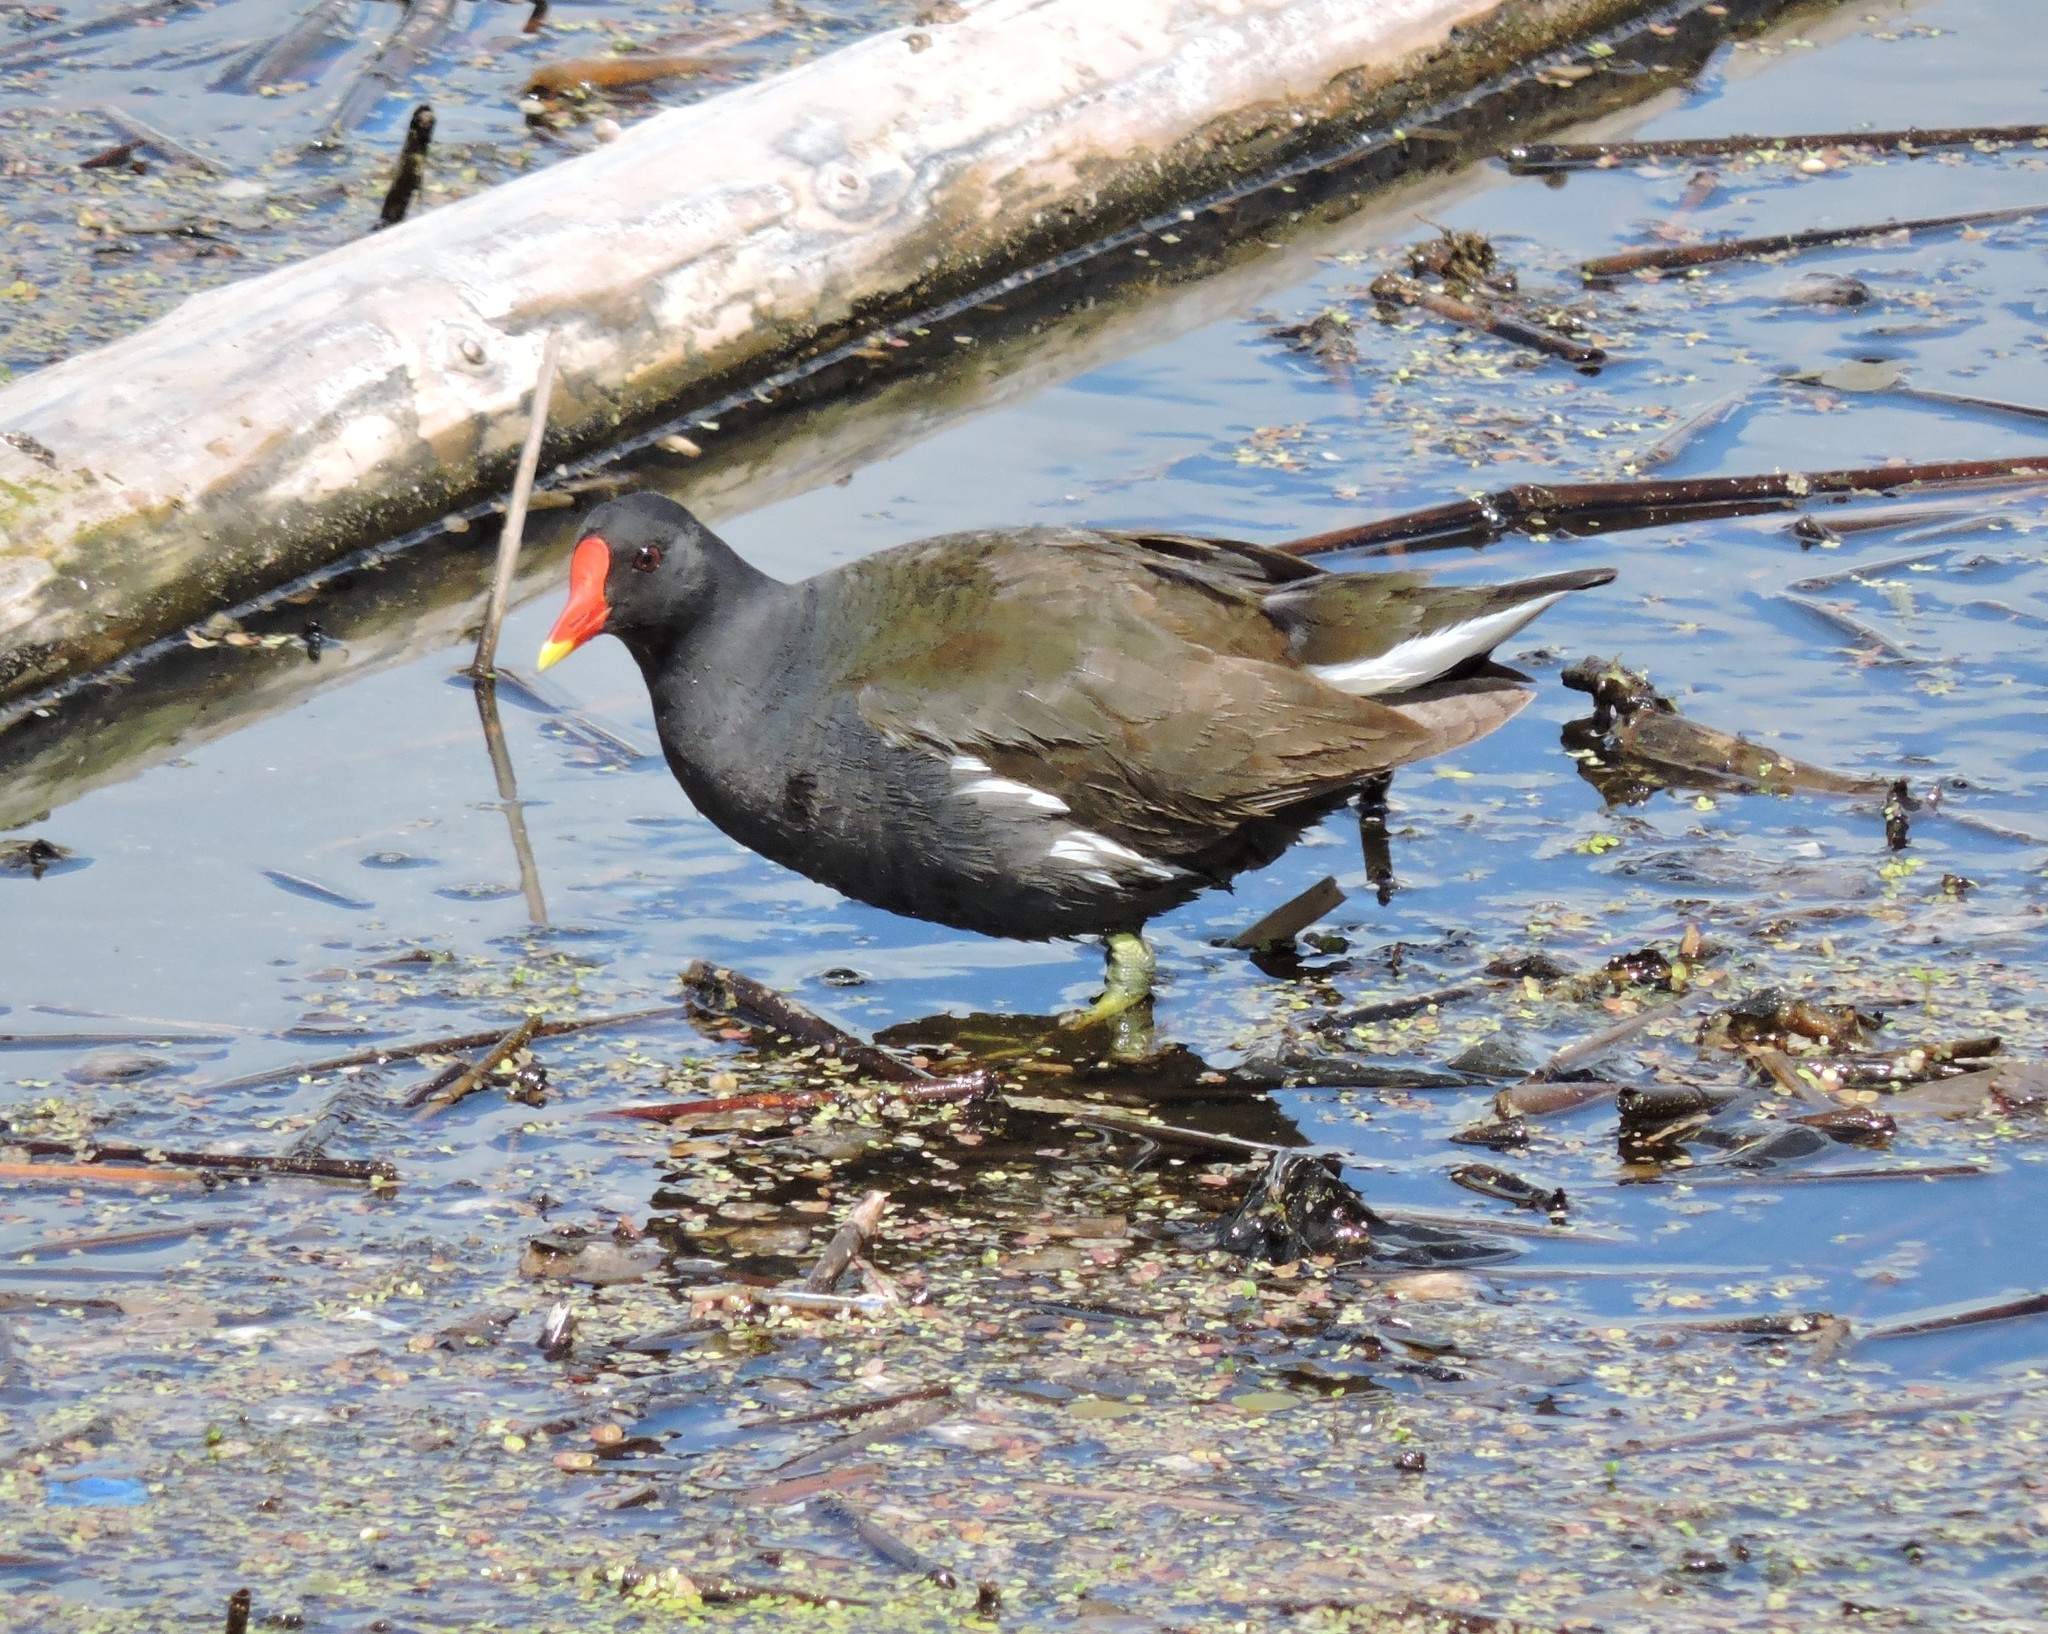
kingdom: Animalia
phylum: Chordata
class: Aves
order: Gruiformes
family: Rallidae
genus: Gallinula
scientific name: Gallinula chloropus
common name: Common moorhen
